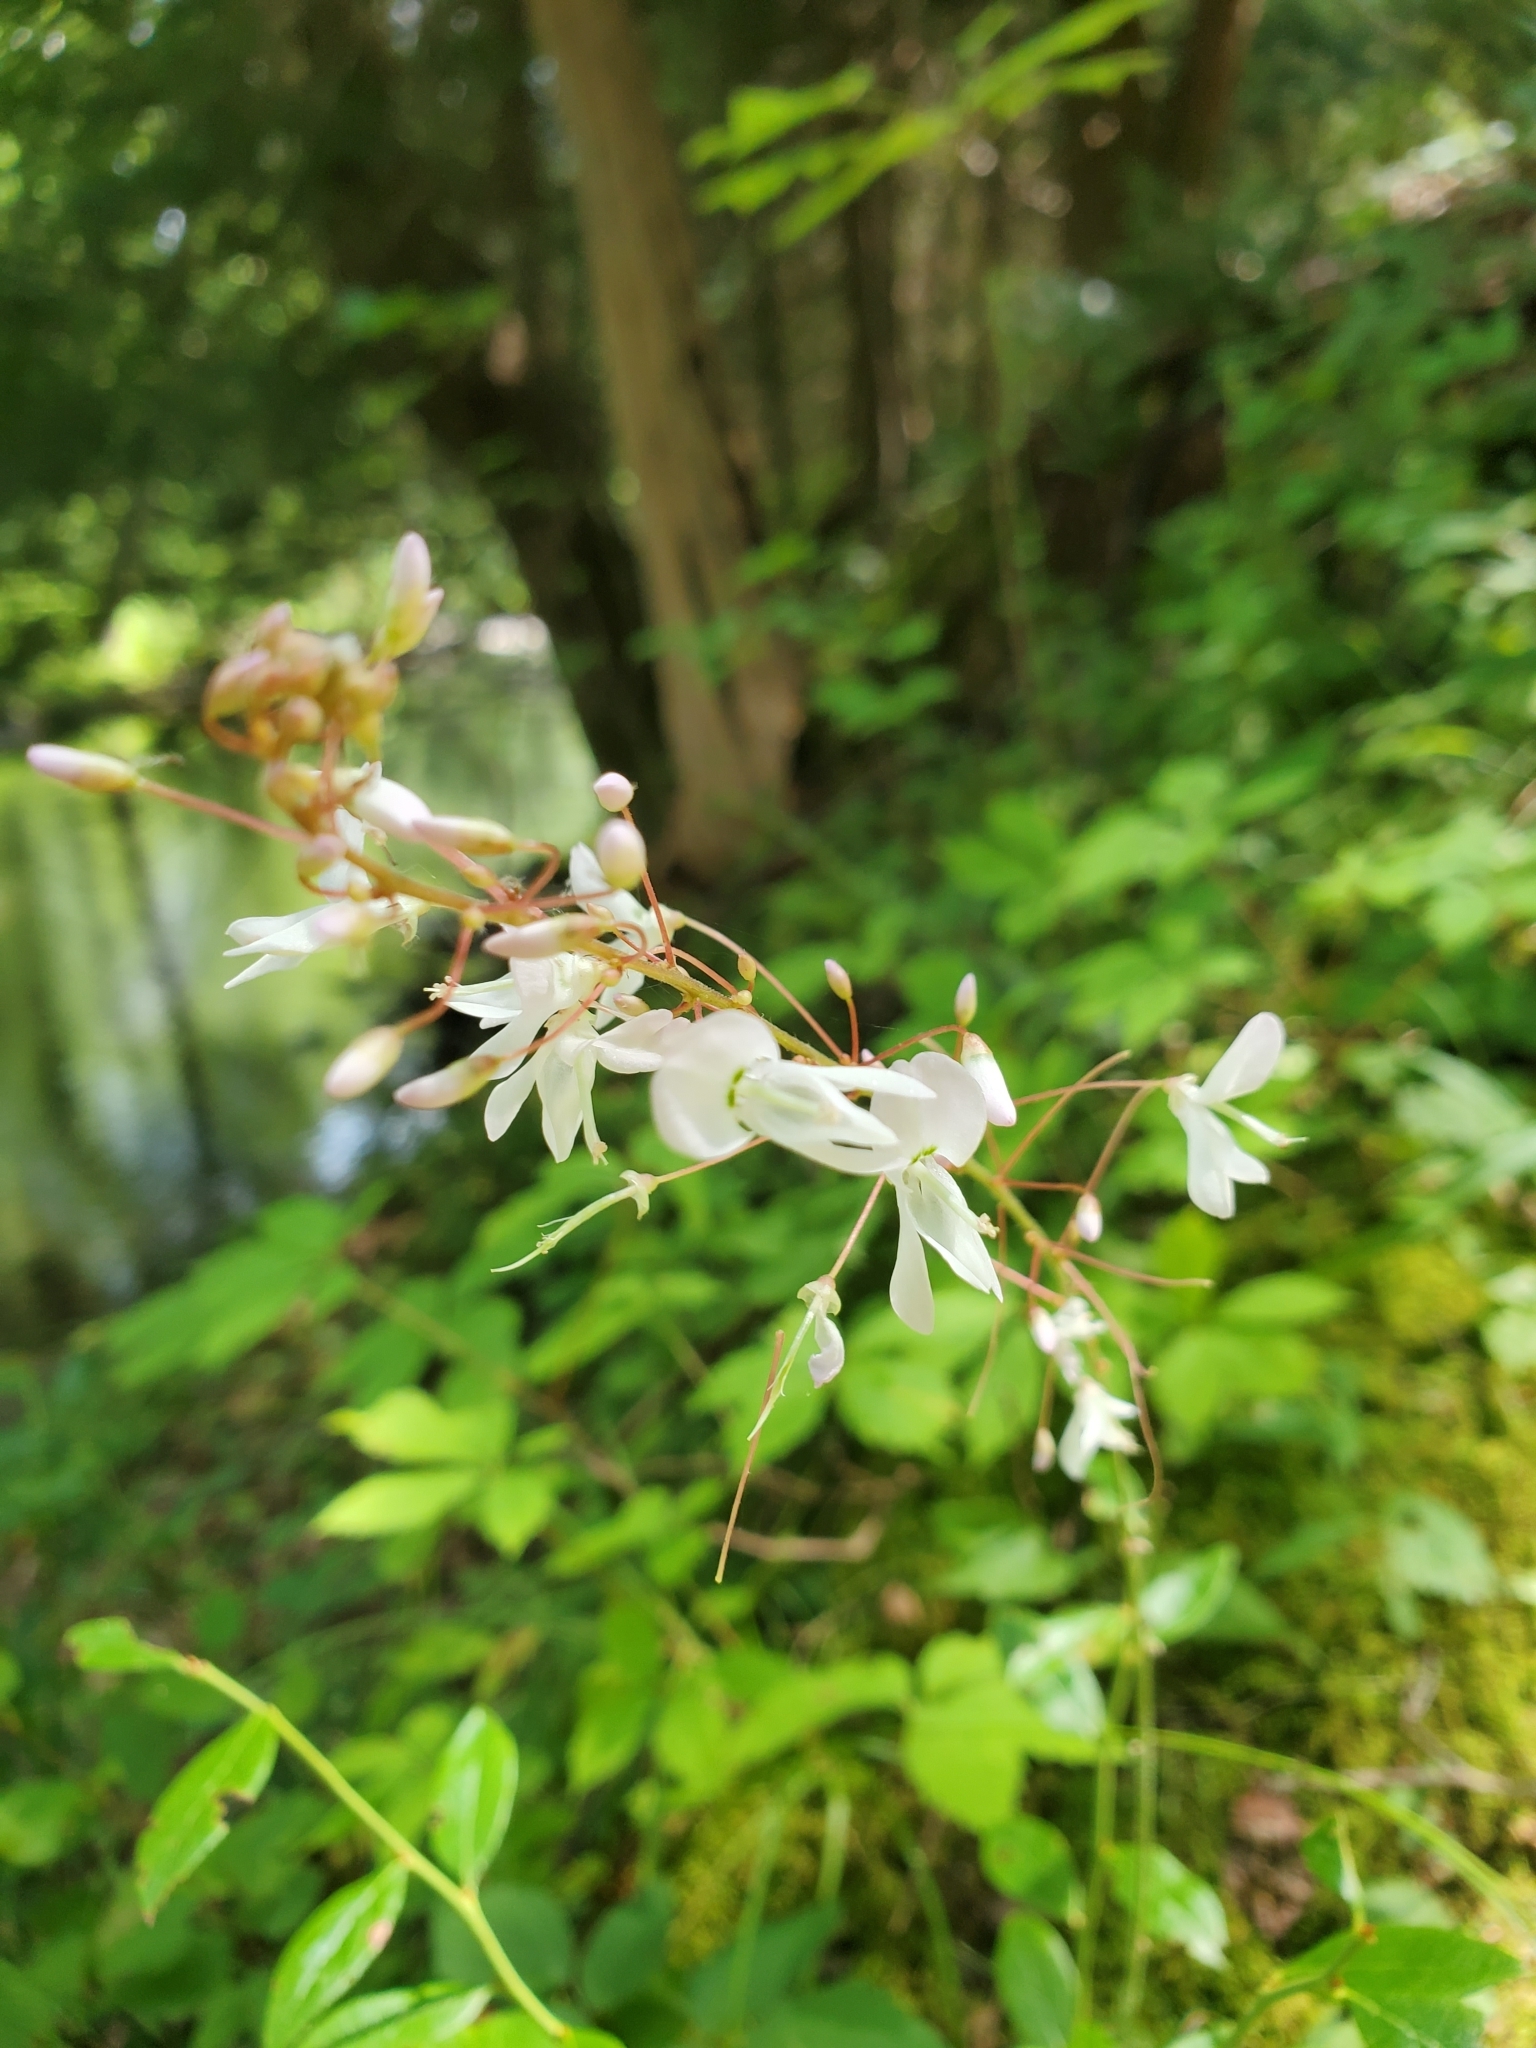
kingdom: Plantae
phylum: Tracheophyta
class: Magnoliopsida
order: Fabales
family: Fabaceae
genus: Hylodesmum
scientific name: Hylodesmum nudiflorum
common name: Bare-stemmed tick-trefoil
